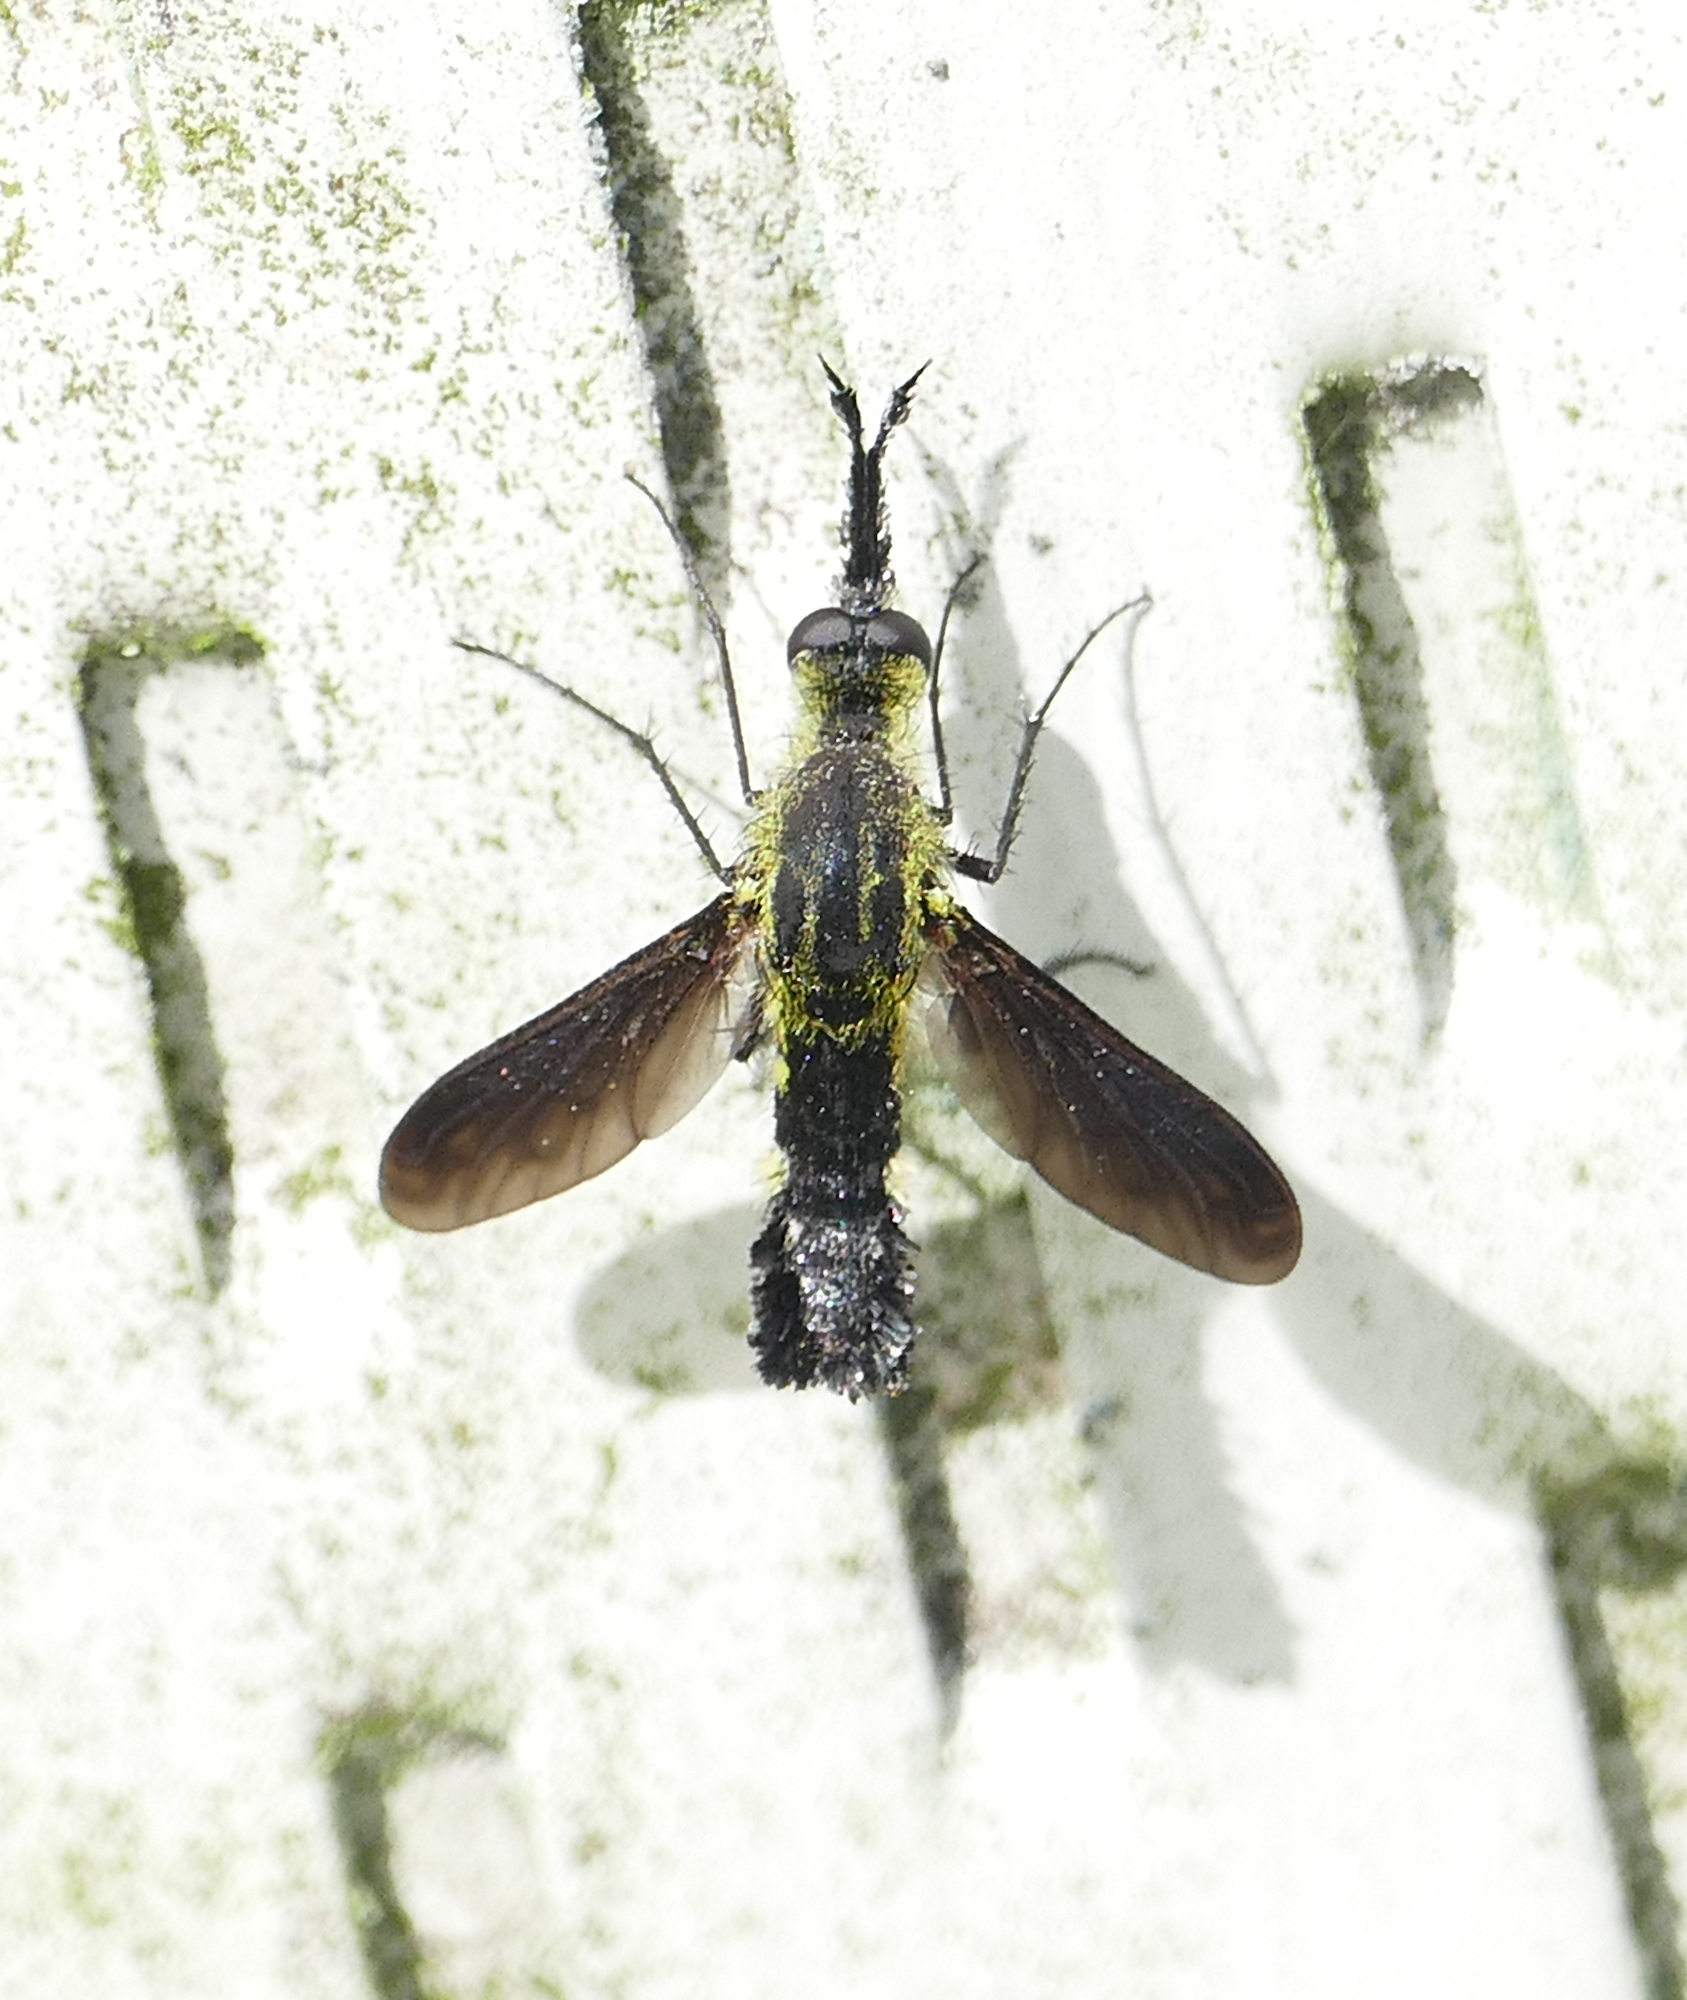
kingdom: Animalia
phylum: Arthropoda
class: Insecta
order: Diptera
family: Bombyliidae
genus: Lepidophora
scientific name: Lepidophora lepidocera
